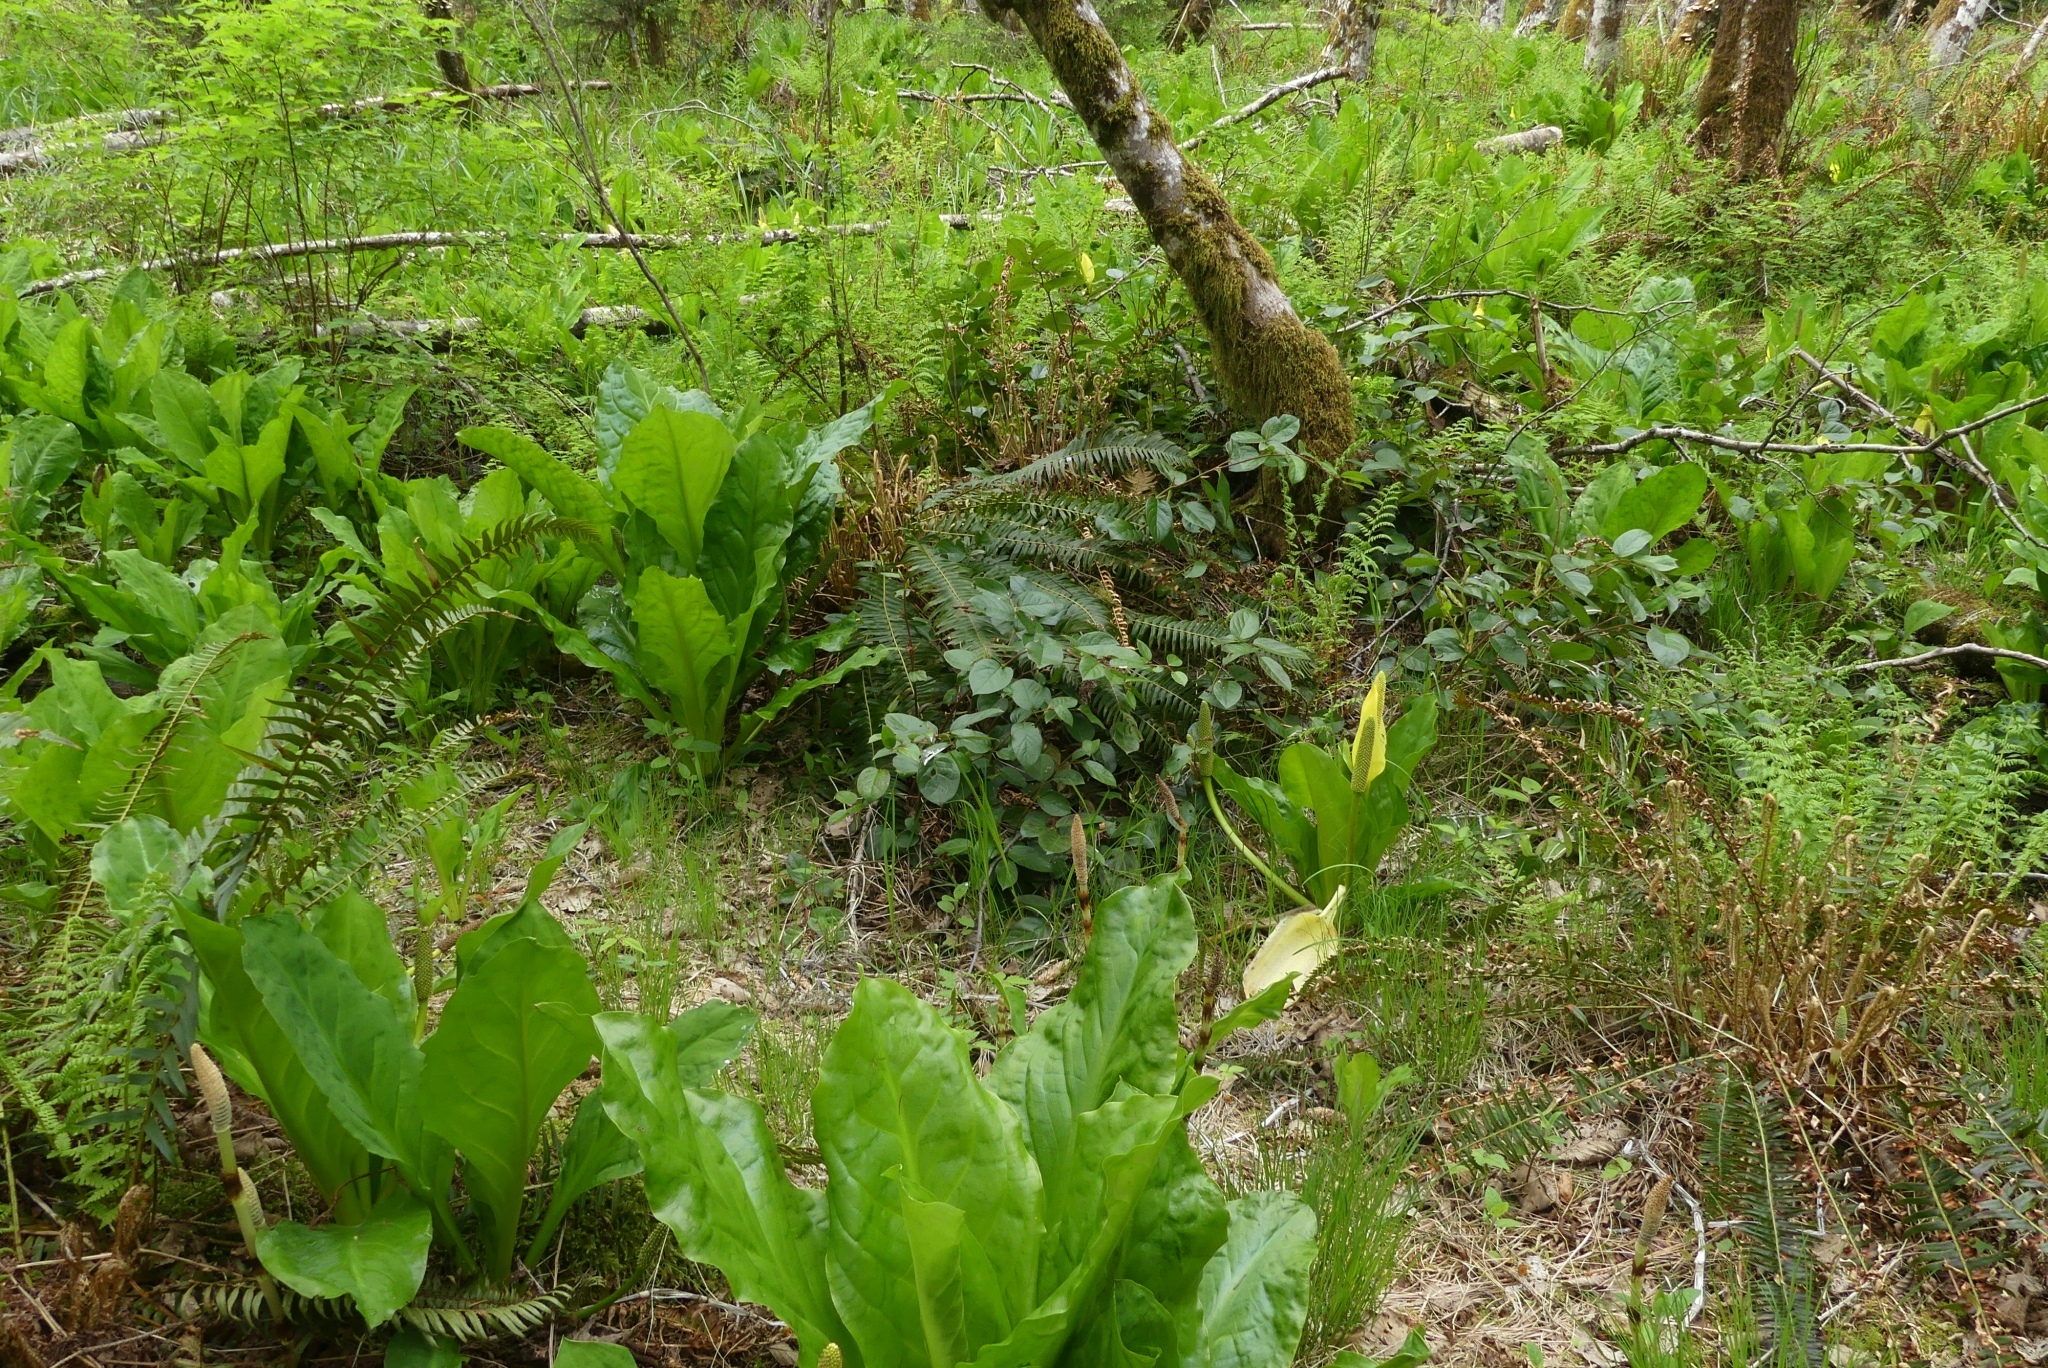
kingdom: Plantae
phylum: Tracheophyta
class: Magnoliopsida
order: Ericales
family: Ericaceae
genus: Gaultheria
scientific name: Gaultheria shallon
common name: Shallon
